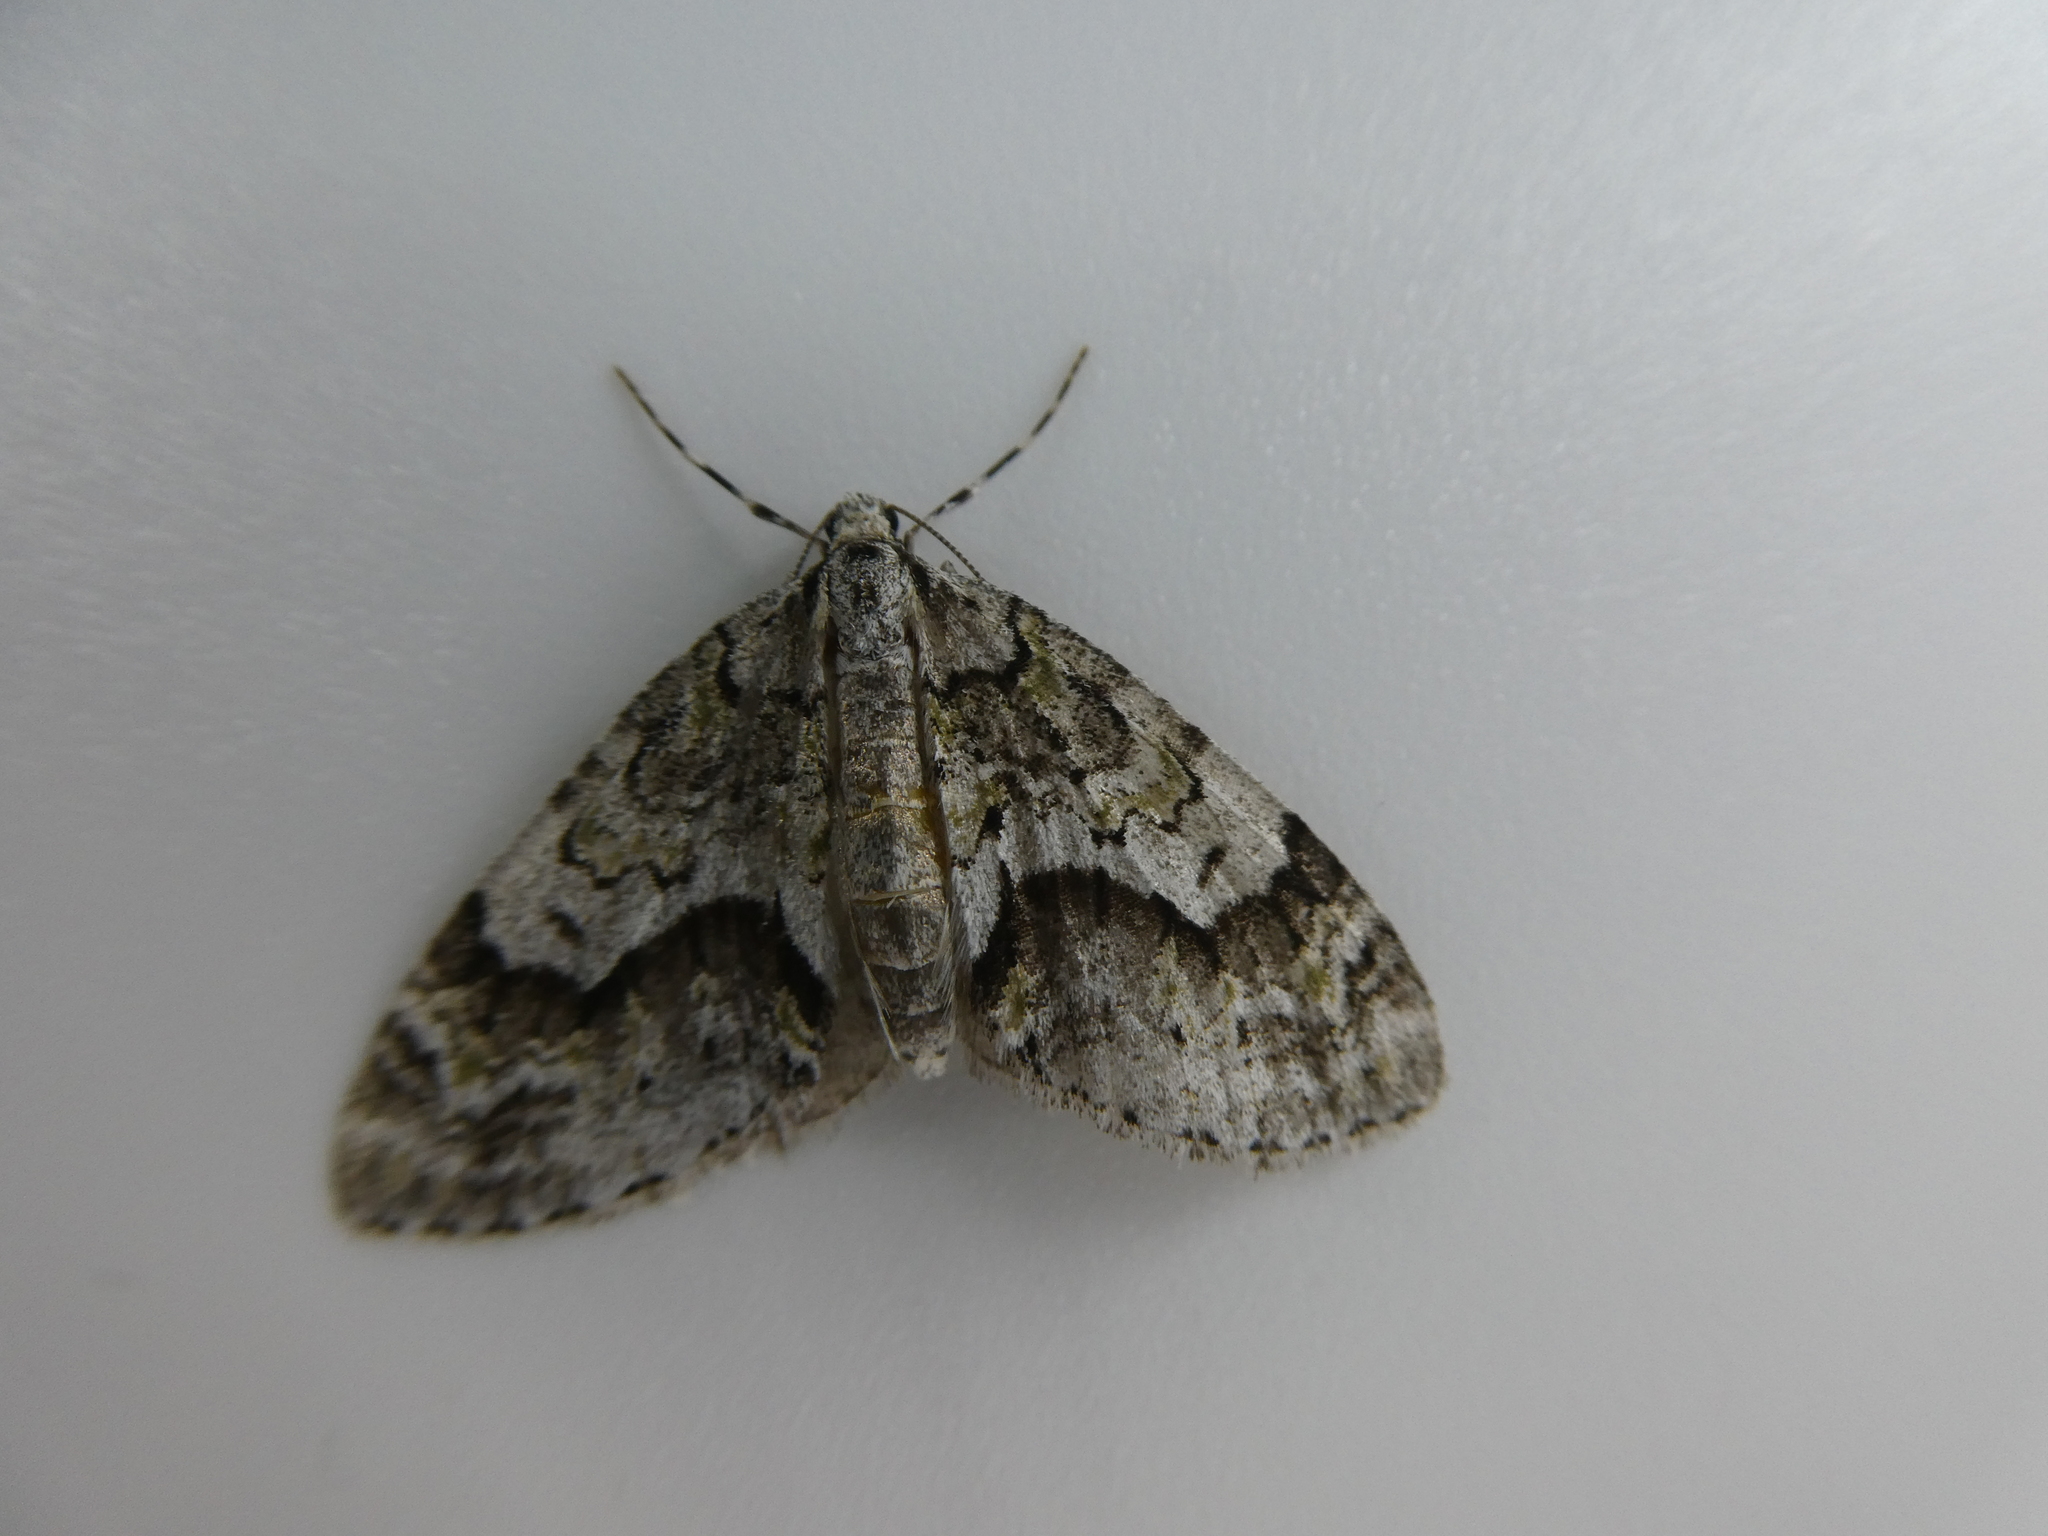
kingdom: Animalia
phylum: Arthropoda
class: Insecta
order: Lepidoptera
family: Geometridae
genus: Cladara
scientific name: Cladara limitaria
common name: Mottled gray carpet
